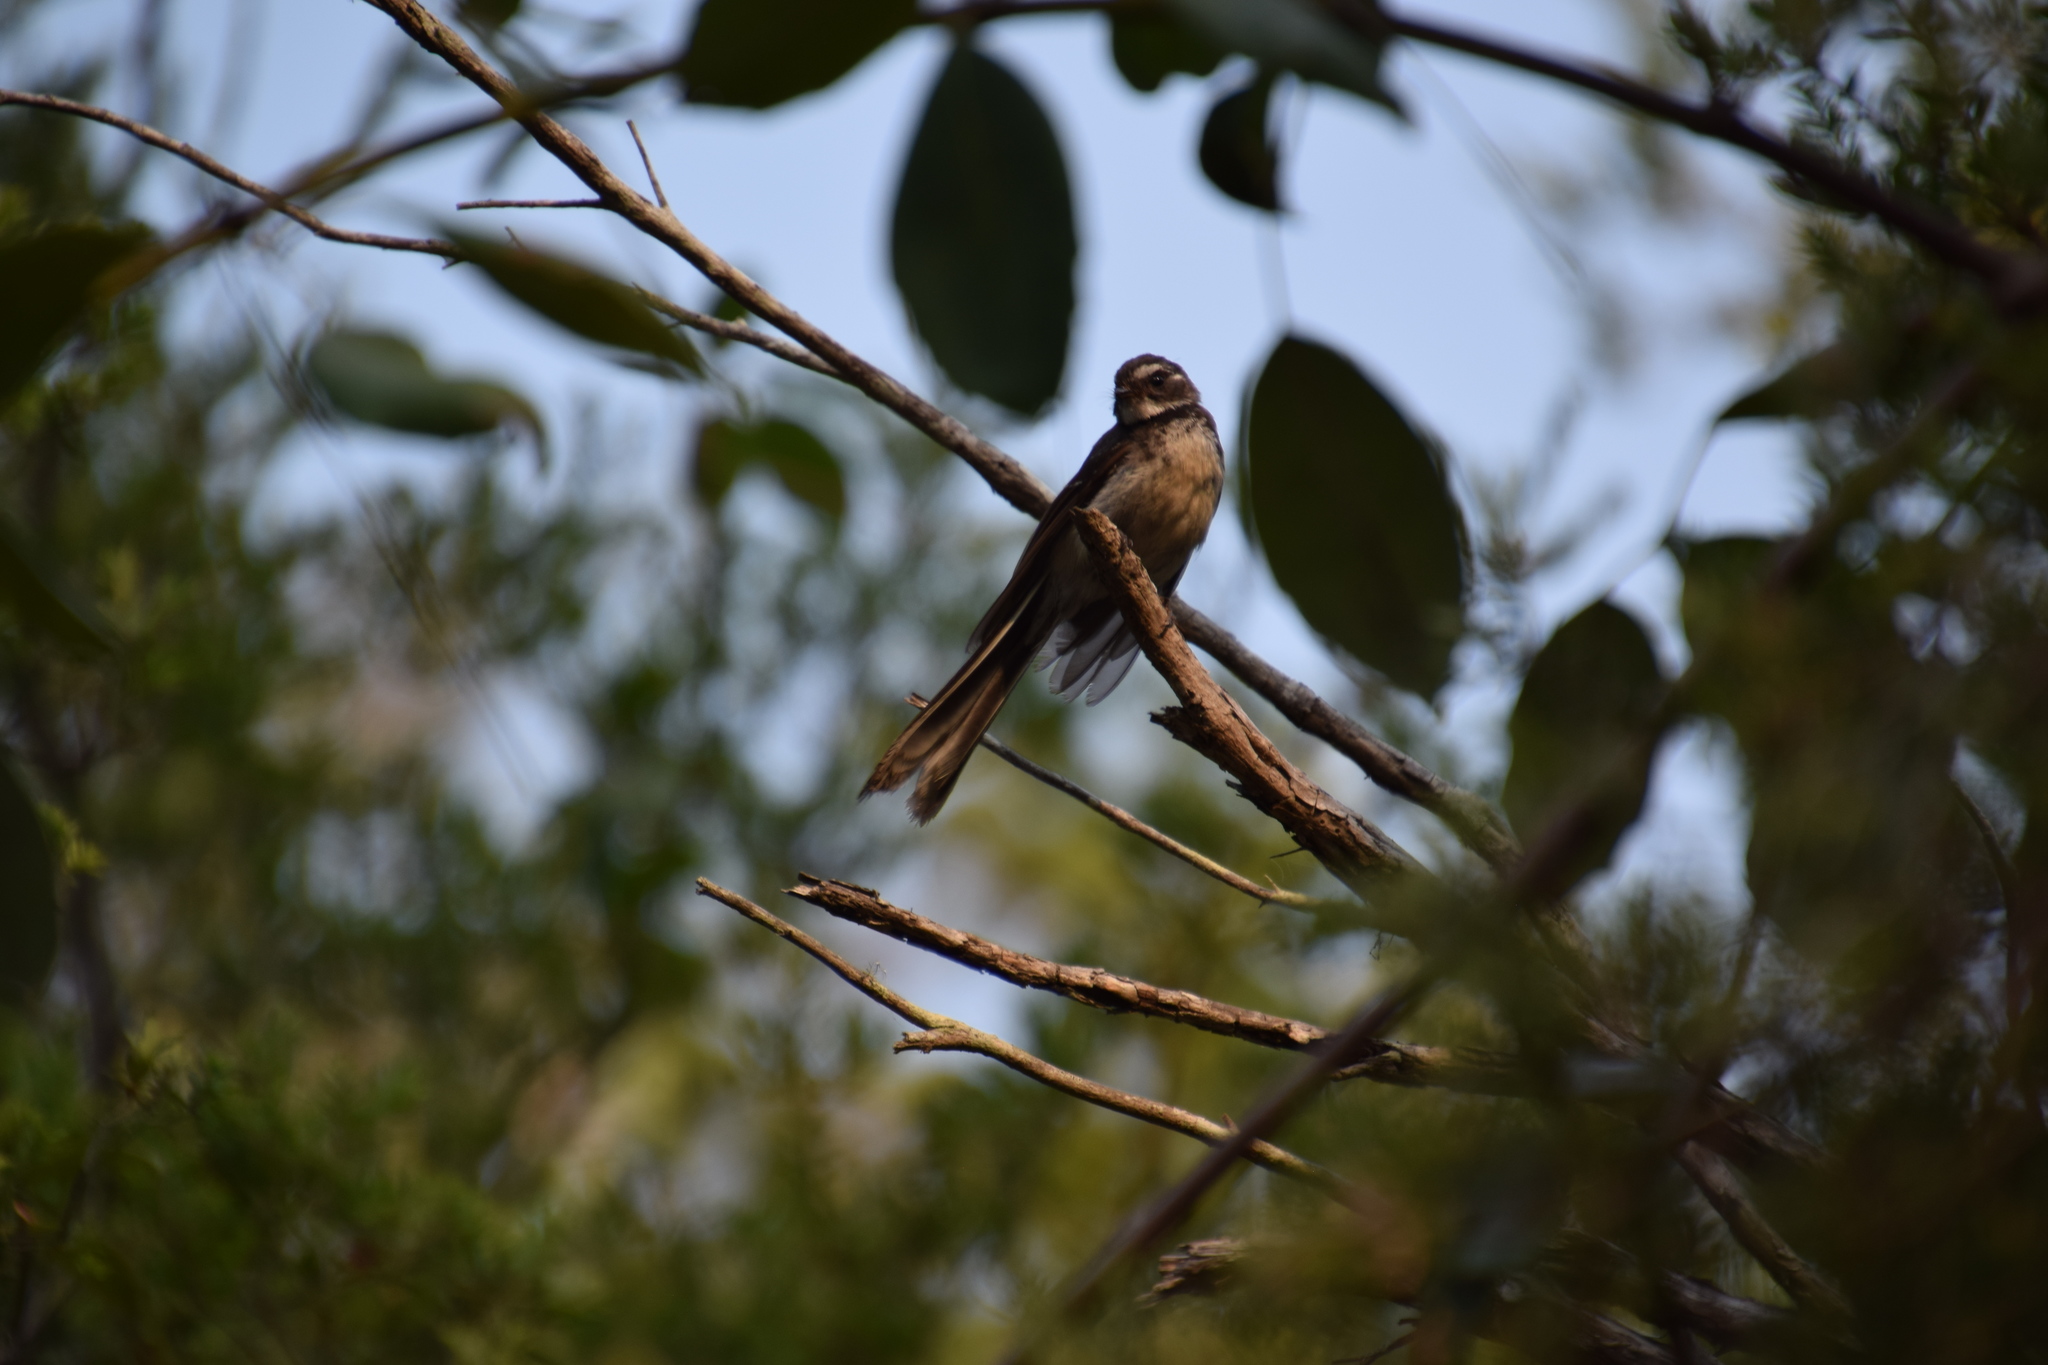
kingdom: Animalia
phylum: Chordata
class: Aves
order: Passeriformes
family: Rhipiduridae
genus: Rhipidura
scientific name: Rhipidura albiscapa
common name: Grey fantail
